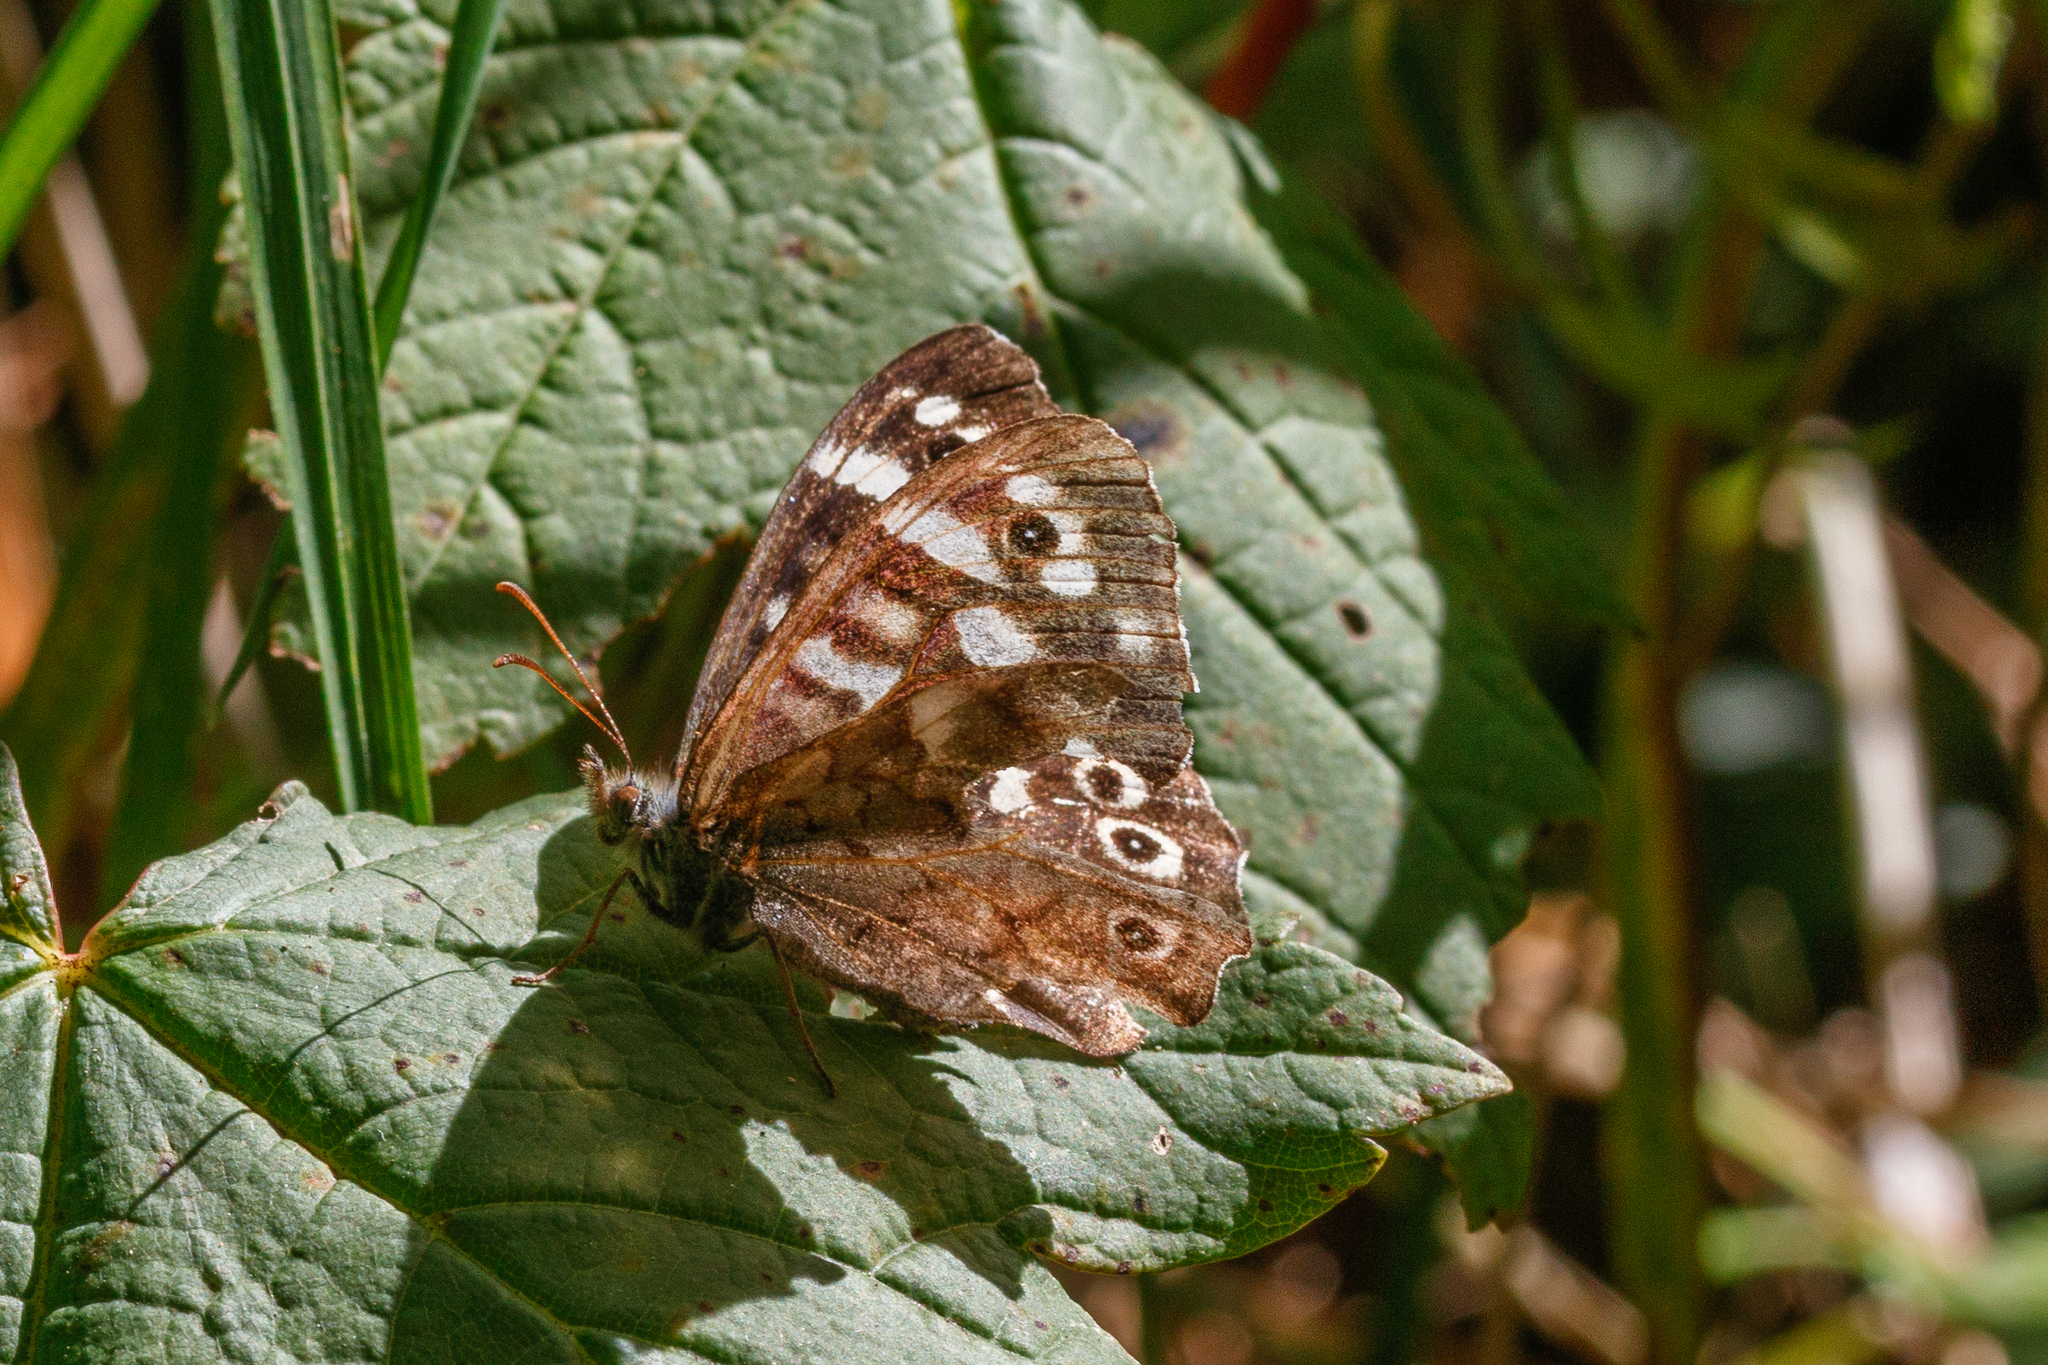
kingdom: Animalia
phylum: Arthropoda
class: Insecta
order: Lepidoptera
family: Nymphalidae
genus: Pararge
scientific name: Pararge aegeria
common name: Speckled wood
